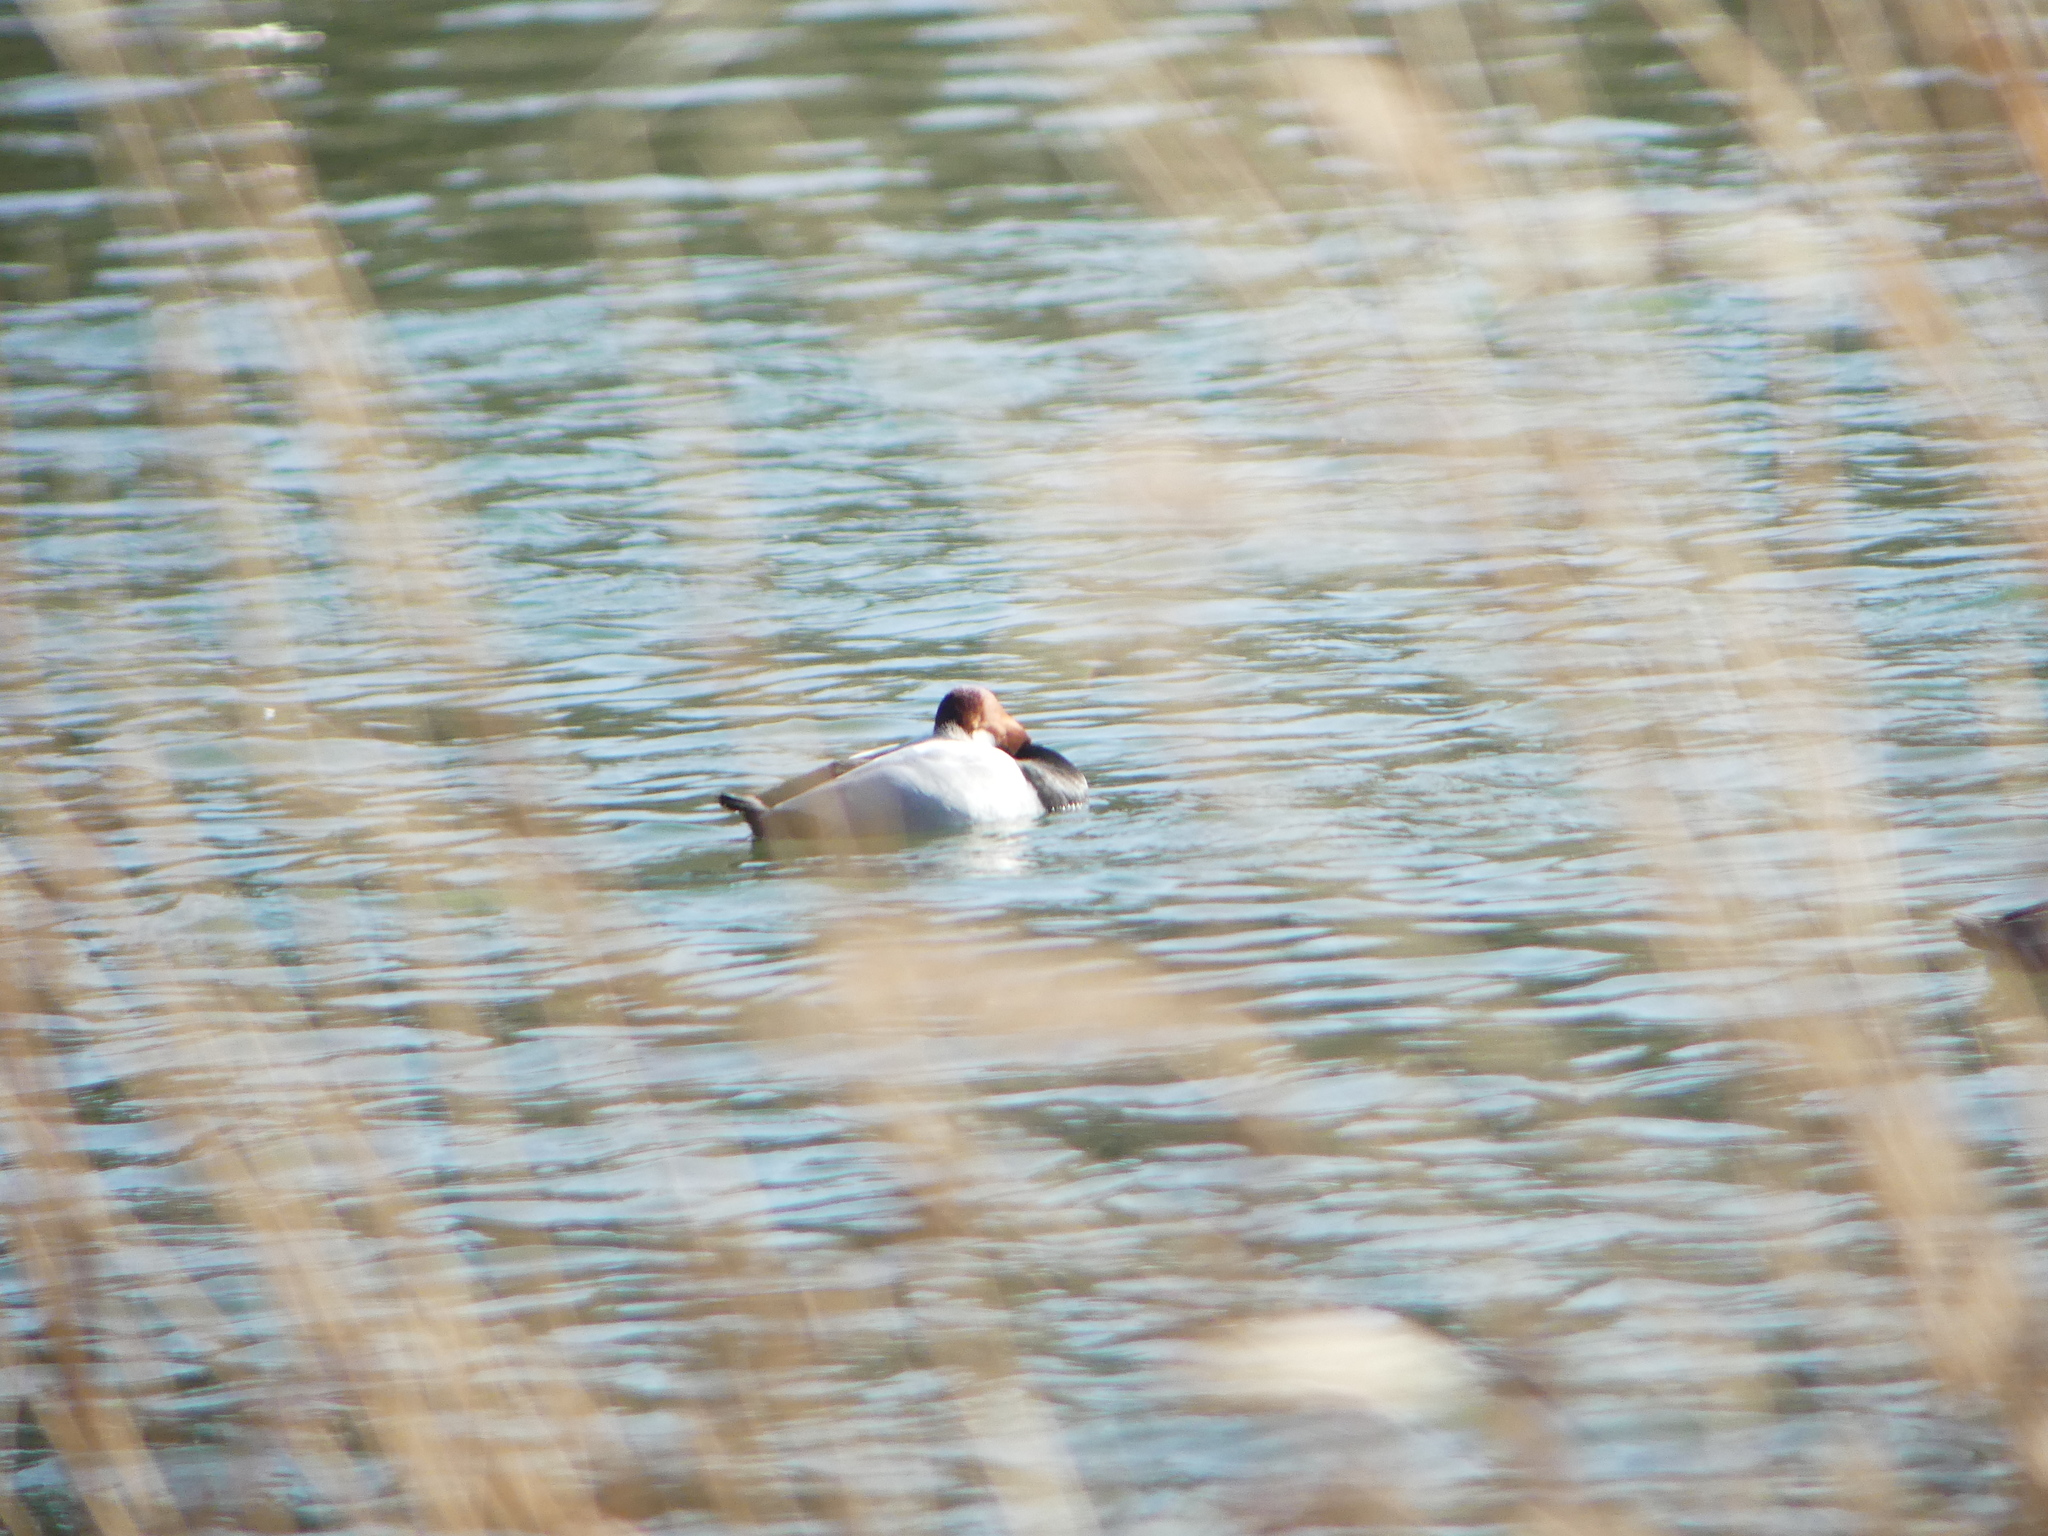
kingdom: Animalia
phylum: Chordata
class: Aves
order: Anseriformes
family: Anatidae
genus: Aythya
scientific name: Aythya ferina
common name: Common pochard
